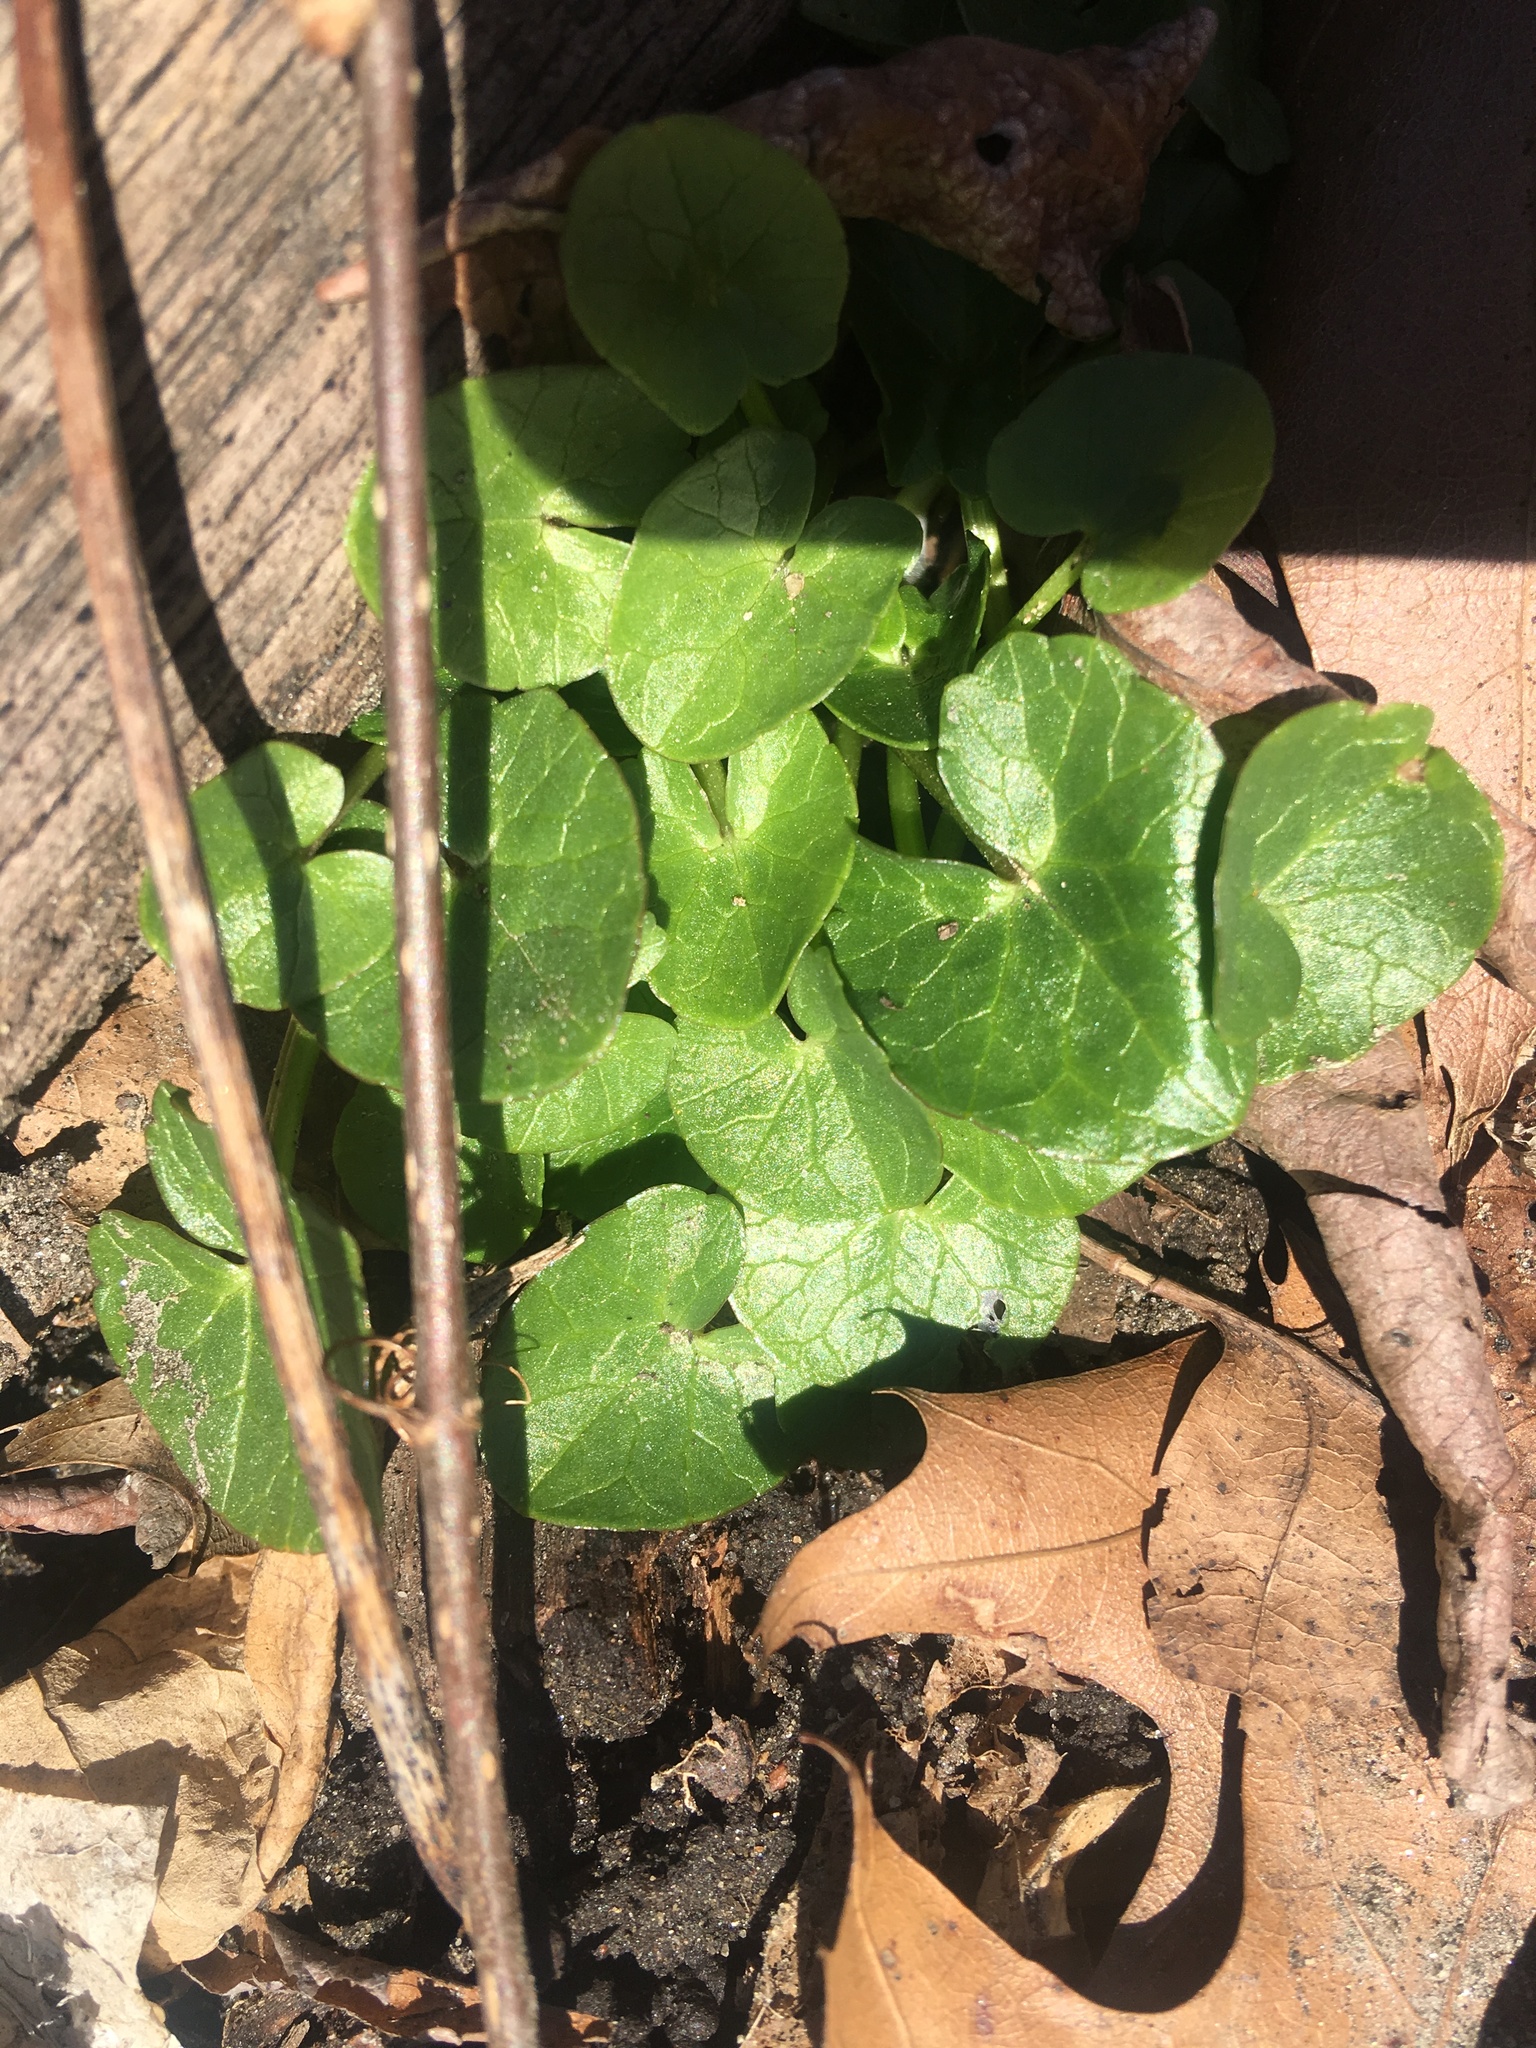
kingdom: Plantae
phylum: Tracheophyta
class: Magnoliopsida
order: Ranunculales
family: Ranunculaceae
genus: Ficaria
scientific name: Ficaria verna
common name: Lesser celandine
